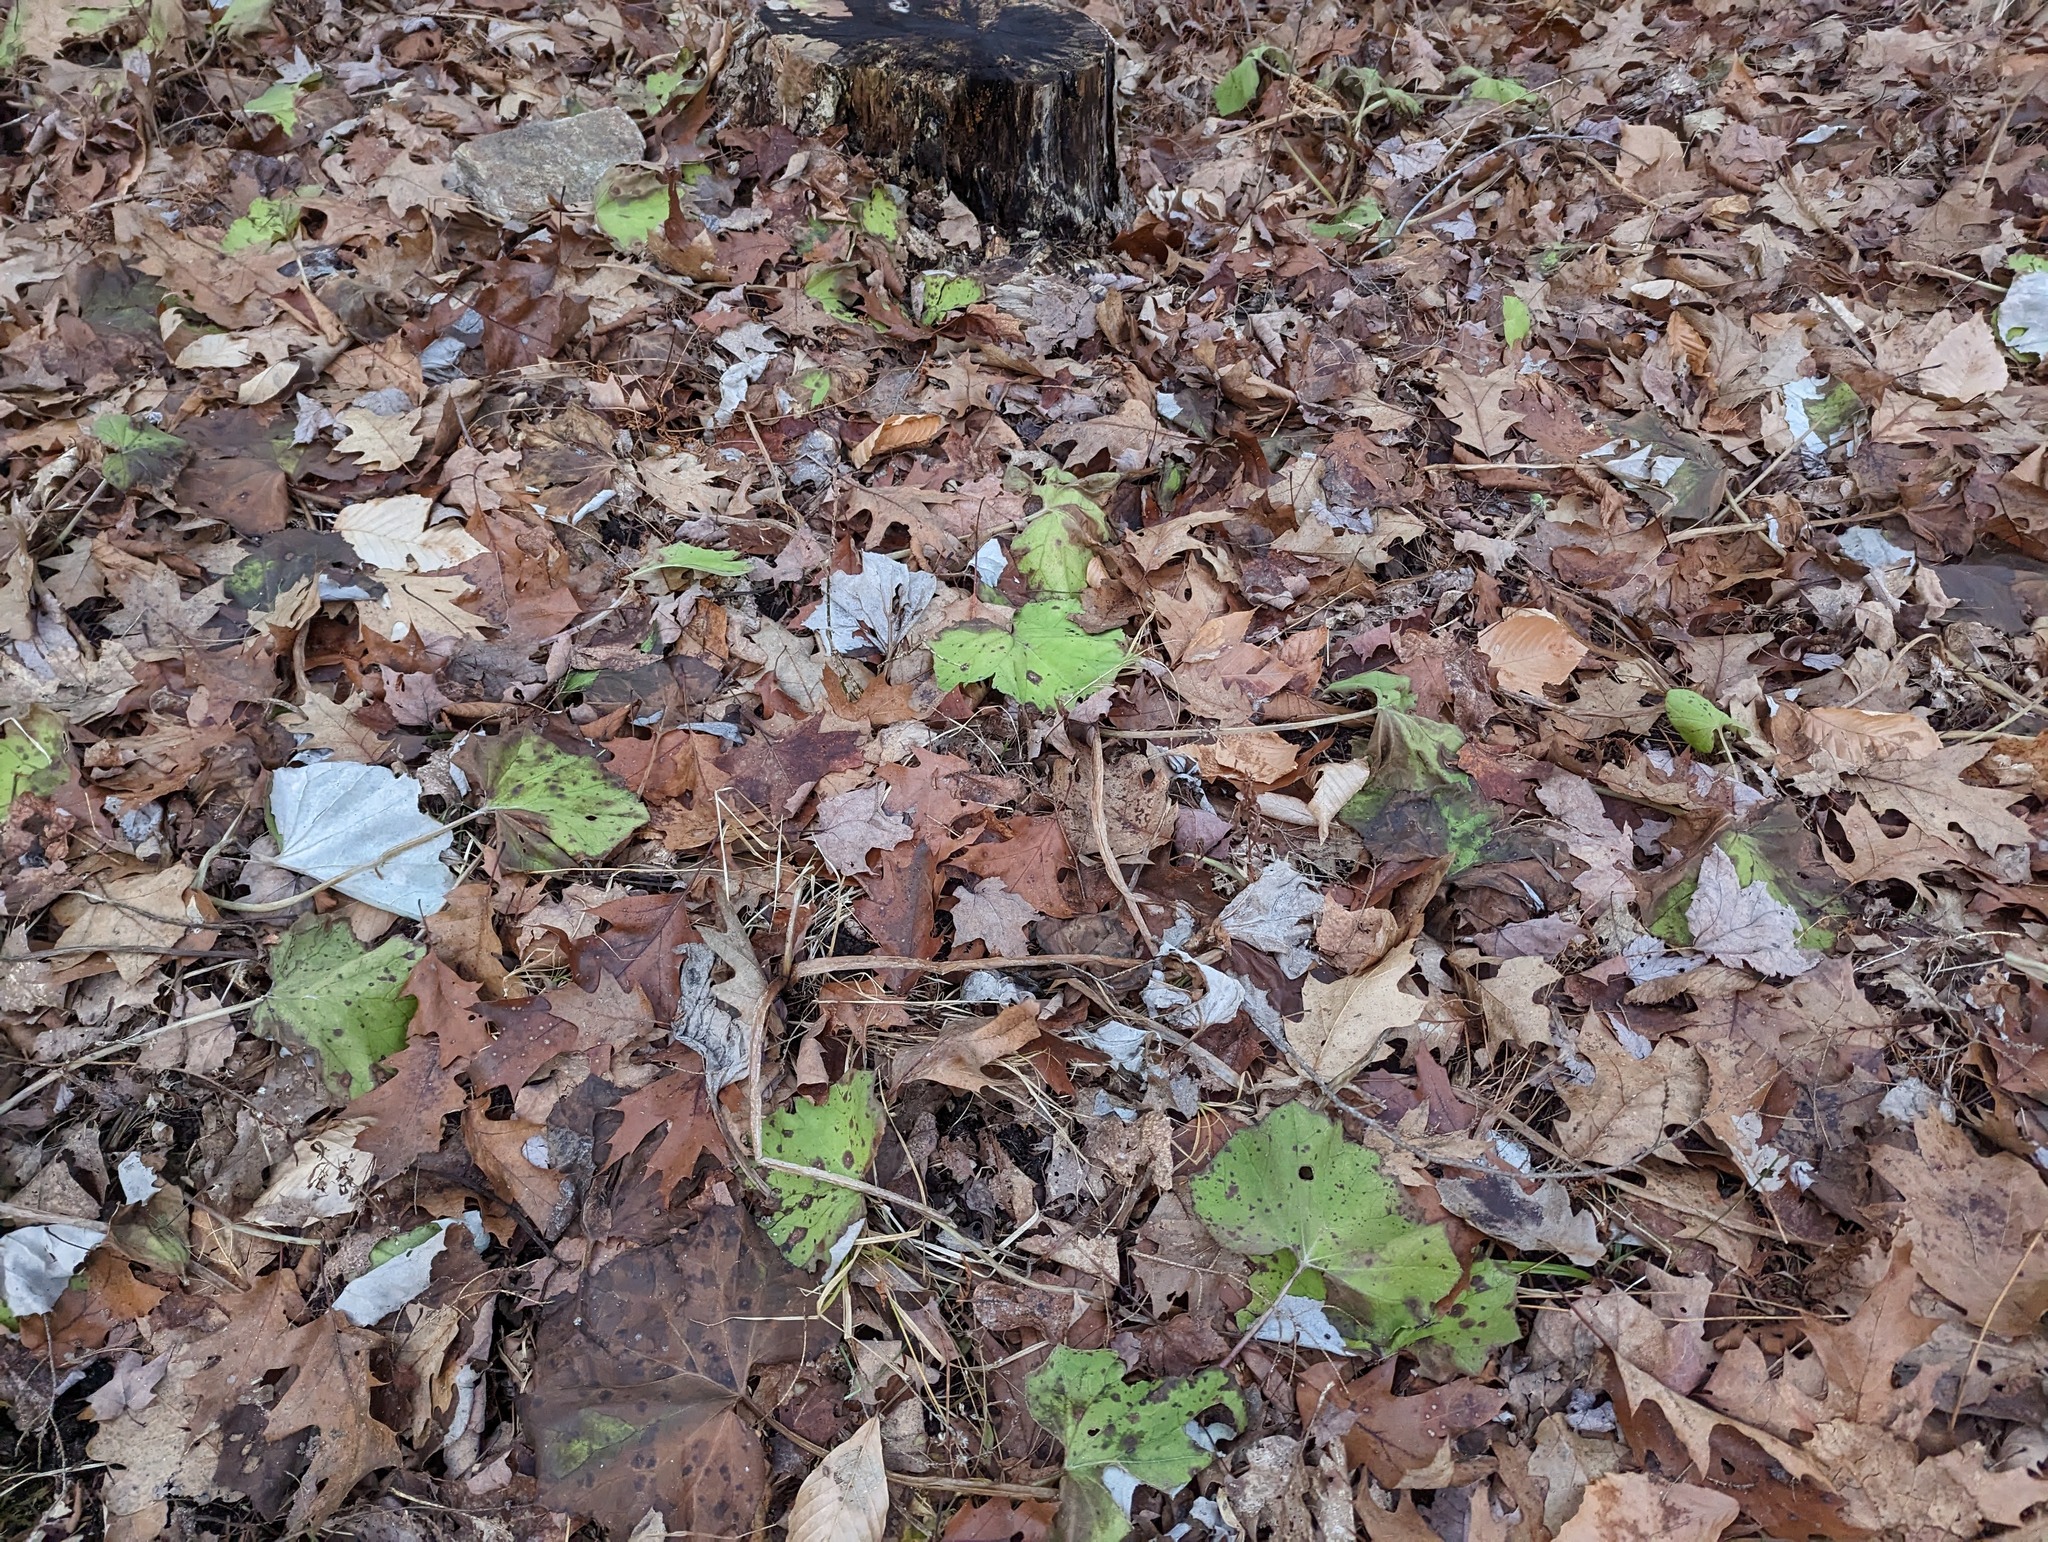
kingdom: Plantae
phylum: Tracheophyta
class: Magnoliopsida
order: Asterales
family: Asteraceae
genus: Tussilago
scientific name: Tussilago farfara
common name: Coltsfoot
